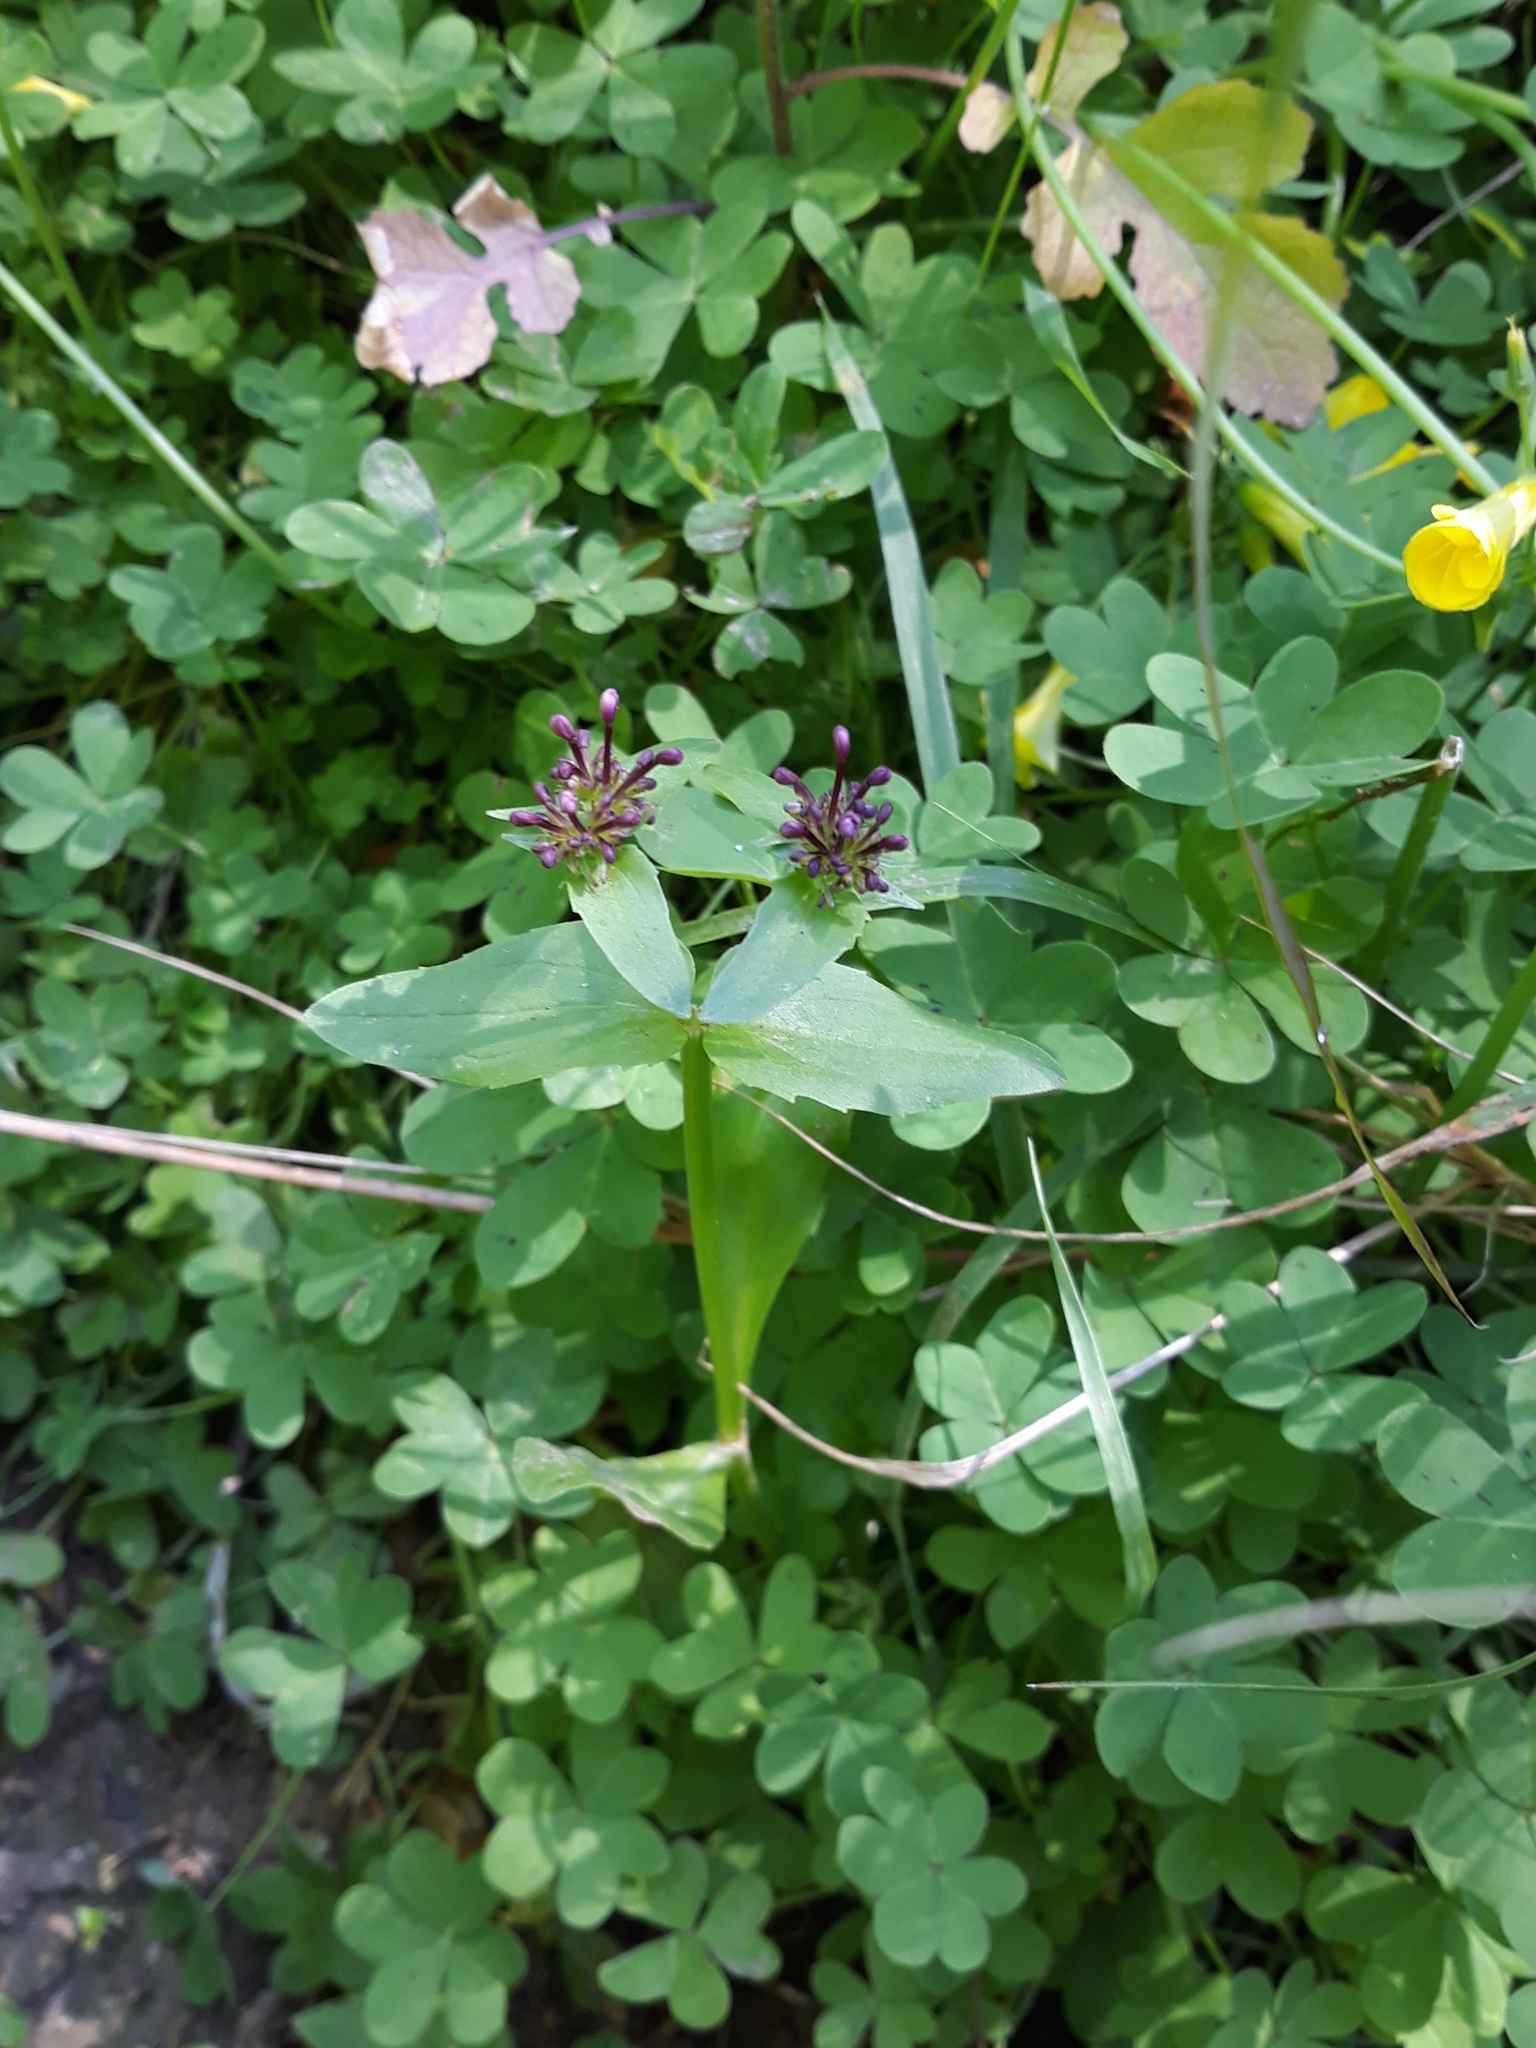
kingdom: Plantae
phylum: Tracheophyta
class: Magnoliopsida
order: Dipsacales
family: Caprifoliaceae
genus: Fedia
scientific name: Fedia graciliflora
